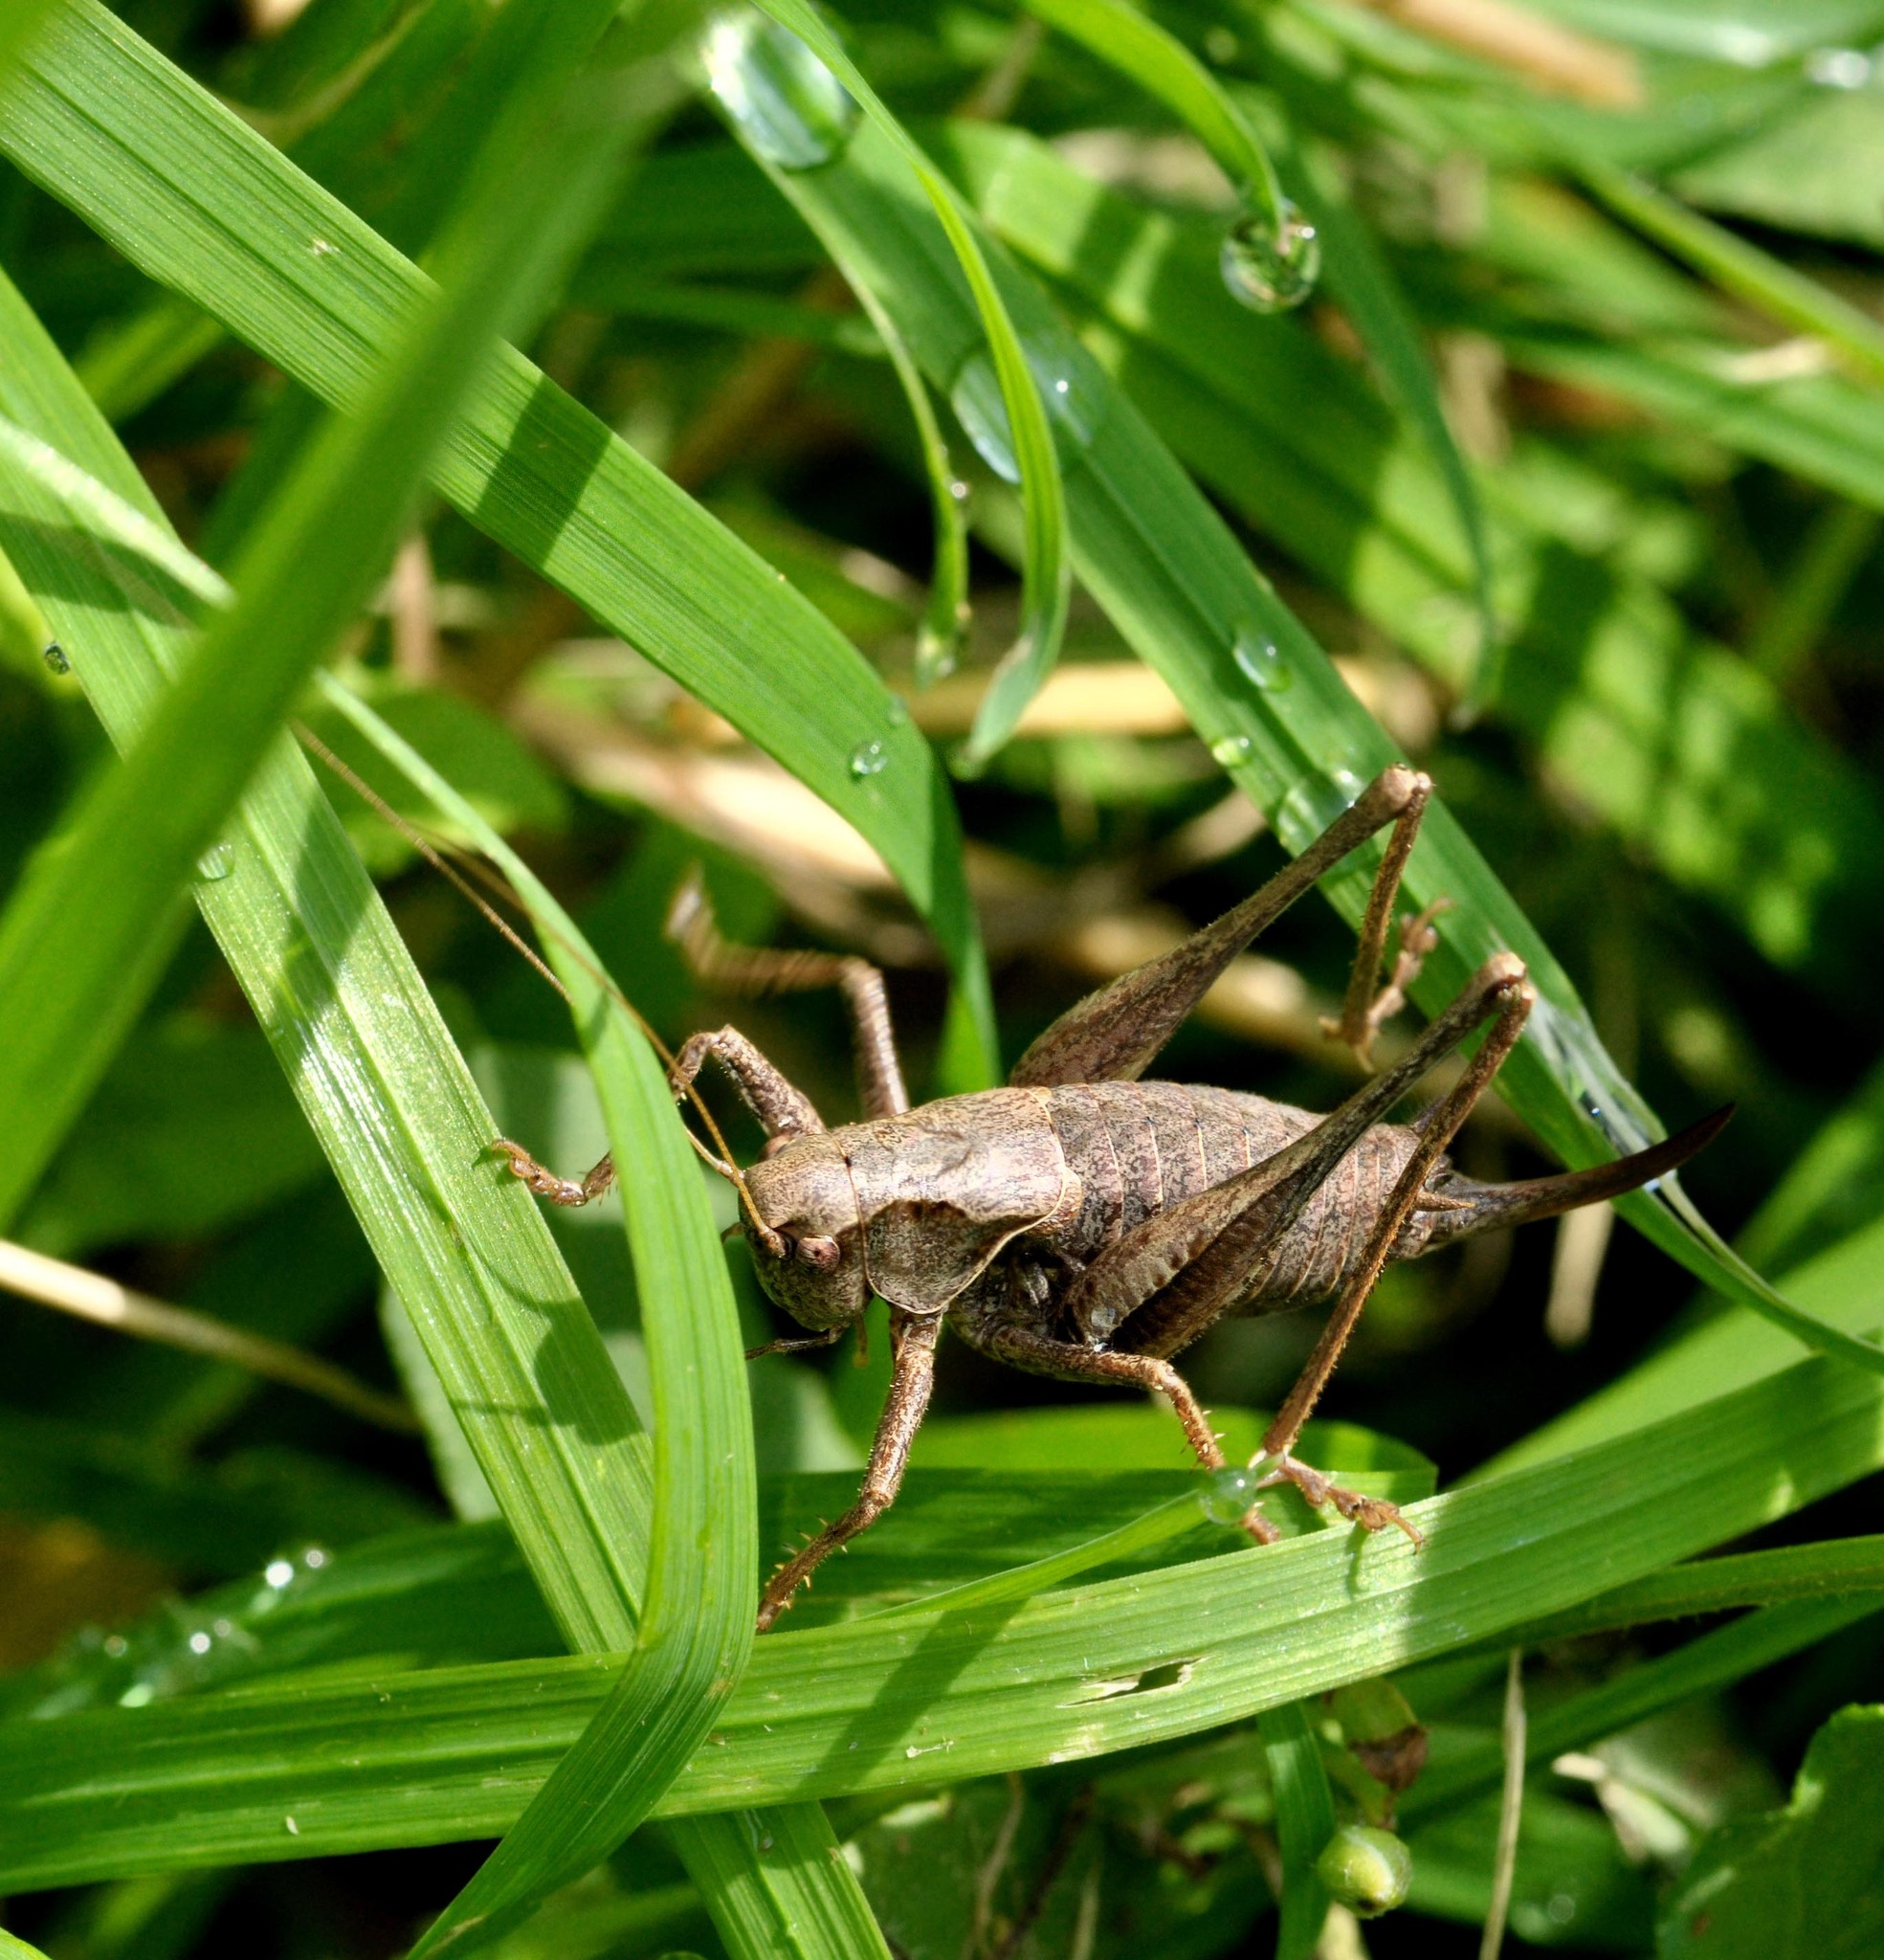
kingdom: Animalia
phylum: Arthropoda
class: Insecta
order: Orthoptera
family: Tettigoniidae
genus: Pholidoptera
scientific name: Pholidoptera griseoaptera
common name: Dark bush-cricket
